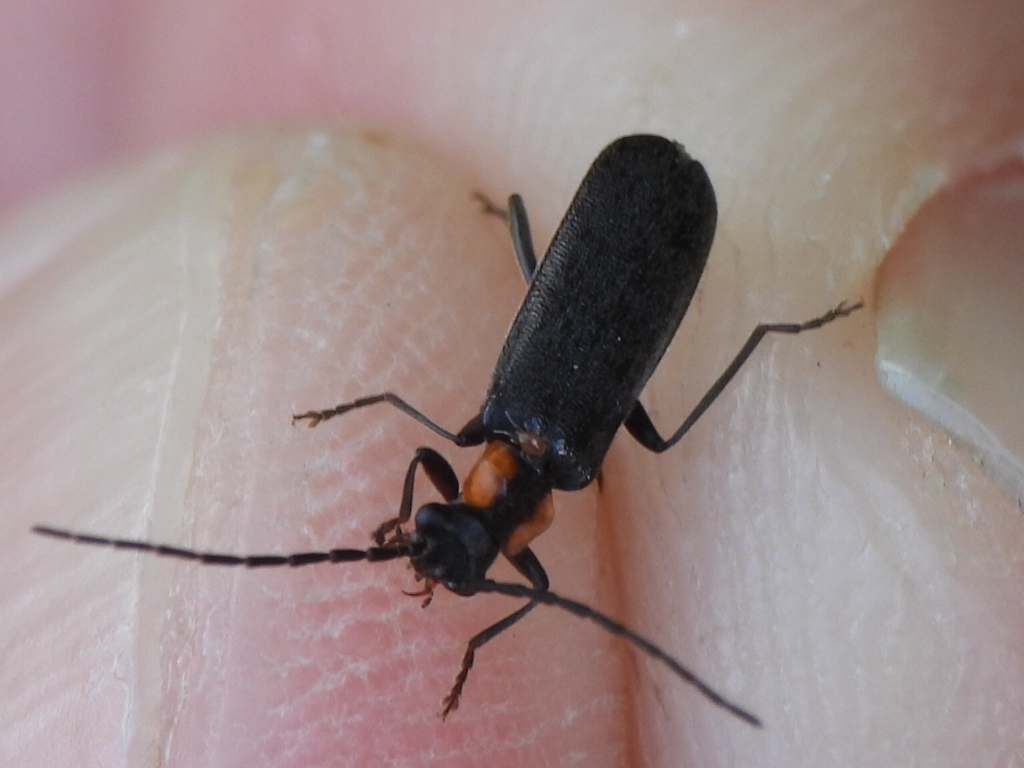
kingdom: Animalia
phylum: Arthropoda
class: Insecta
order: Coleoptera
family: Cantharidae
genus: Rhagonycha
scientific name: Rhagonycha lineola
